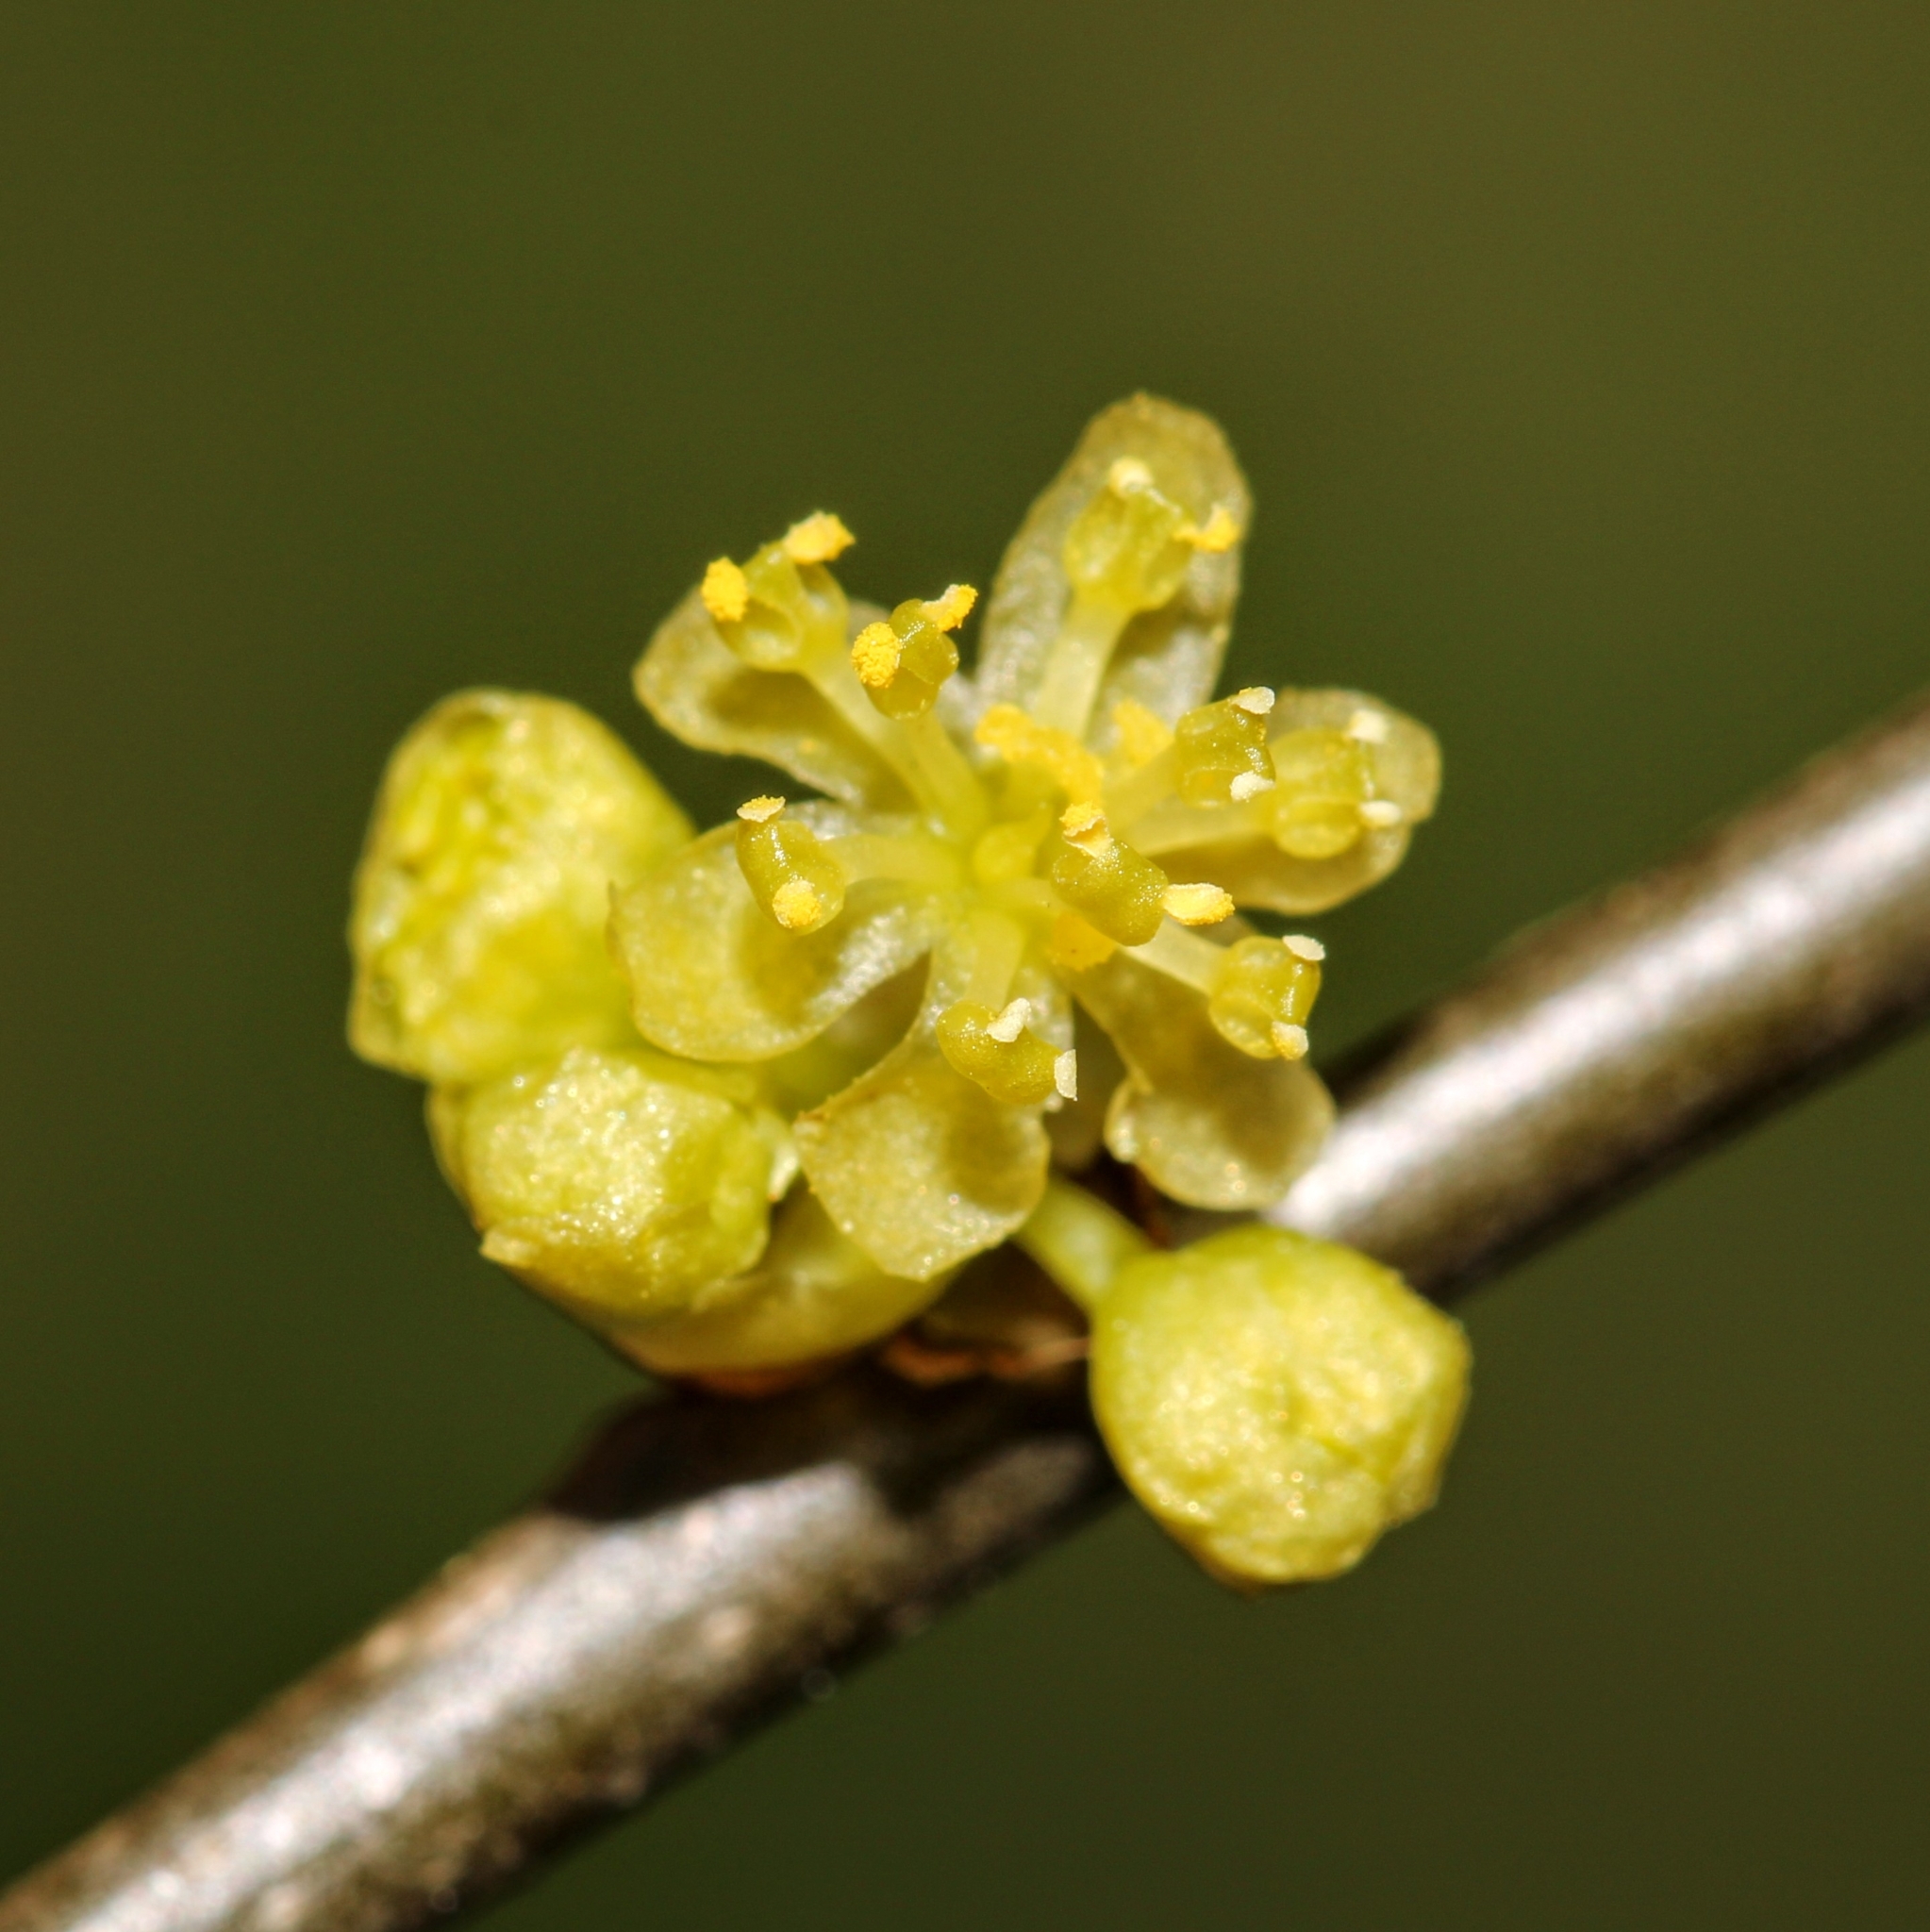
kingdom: Plantae
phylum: Tracheophyta
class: Magnoliopsida
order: Laurales
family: Lauraceae
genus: Lindera
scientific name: Lindera benzoin
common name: Spicebush
